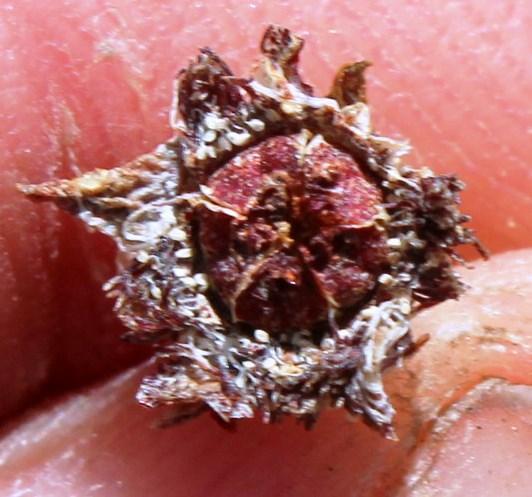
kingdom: Plantae
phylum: Tracheophyta
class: Magnoliopsida
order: Caryophyllales
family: Aizoaceae
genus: Erepsia
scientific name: Erepsia gracilis
